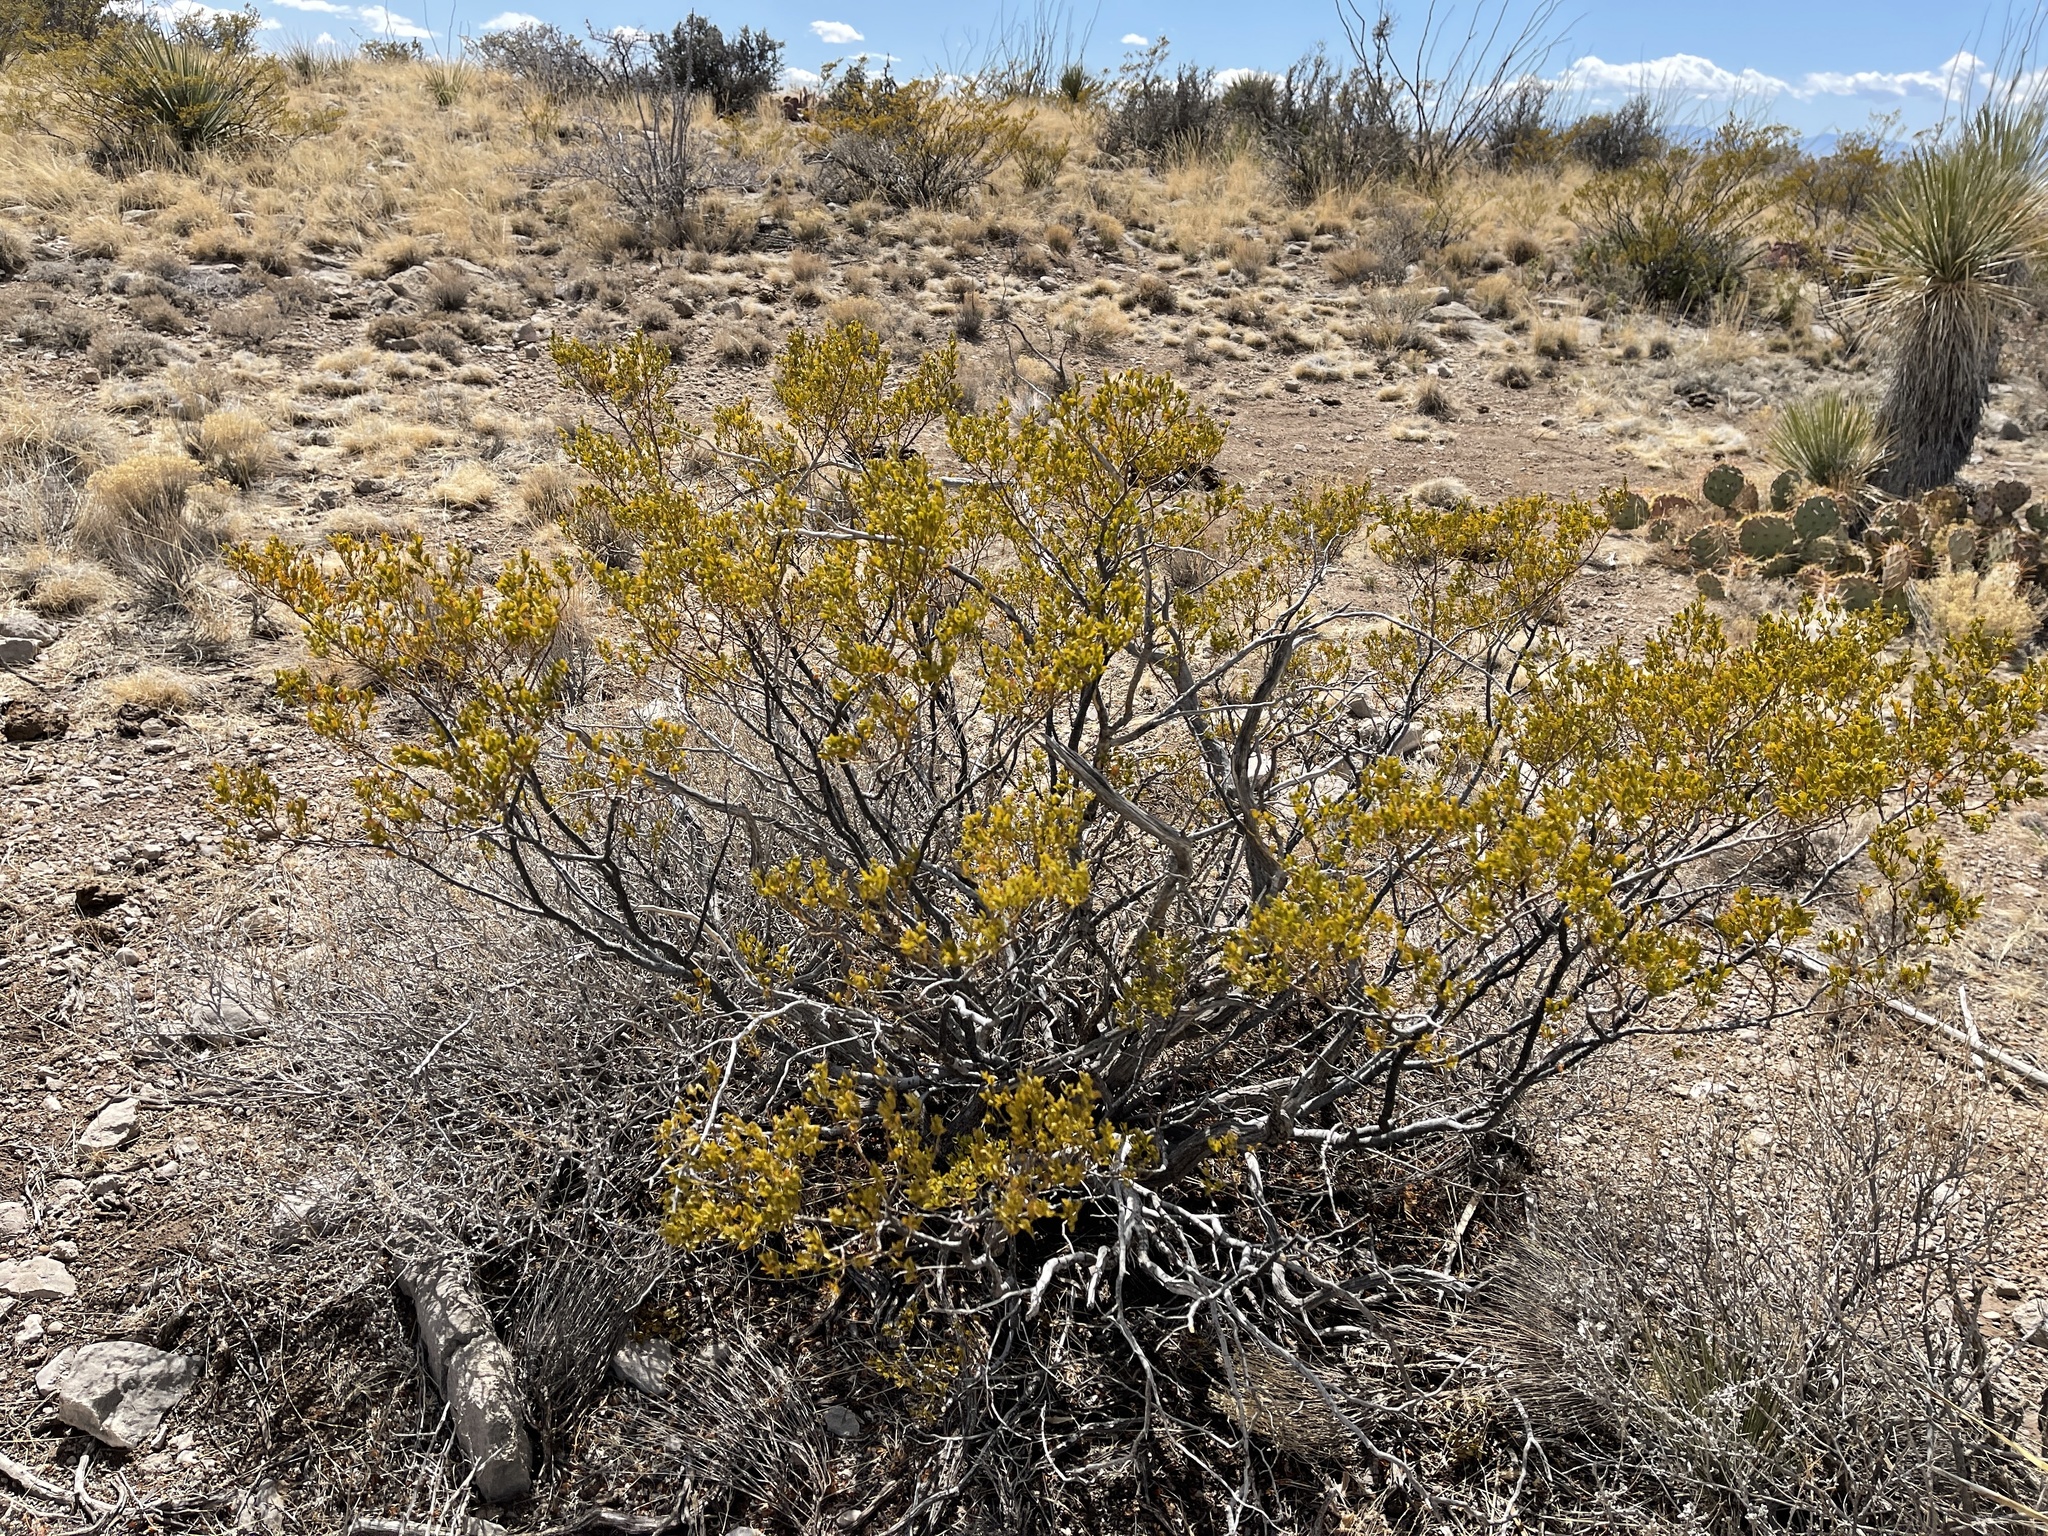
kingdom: Plantae
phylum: Tracheophyta
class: Magnoliopsida
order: Zygophyllales
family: Zygophyllaceae
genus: Larrea
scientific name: Larrea tridentata
